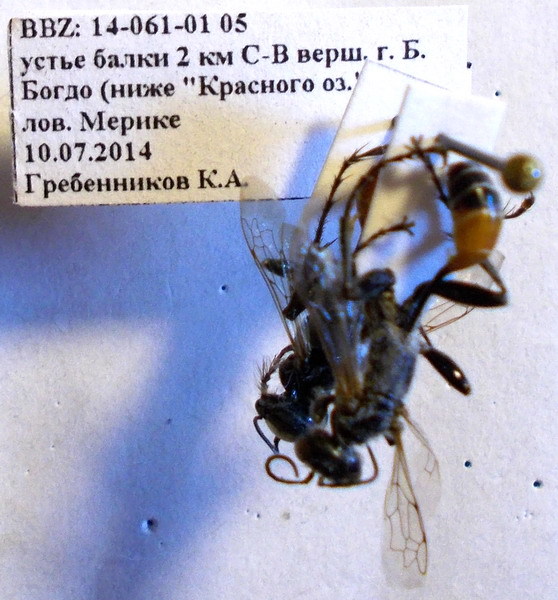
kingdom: Animalia
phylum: Arthropoda
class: Insecta
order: Hymenoptera
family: Sphecidae
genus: Prionyx
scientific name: Prionyx kirbii
